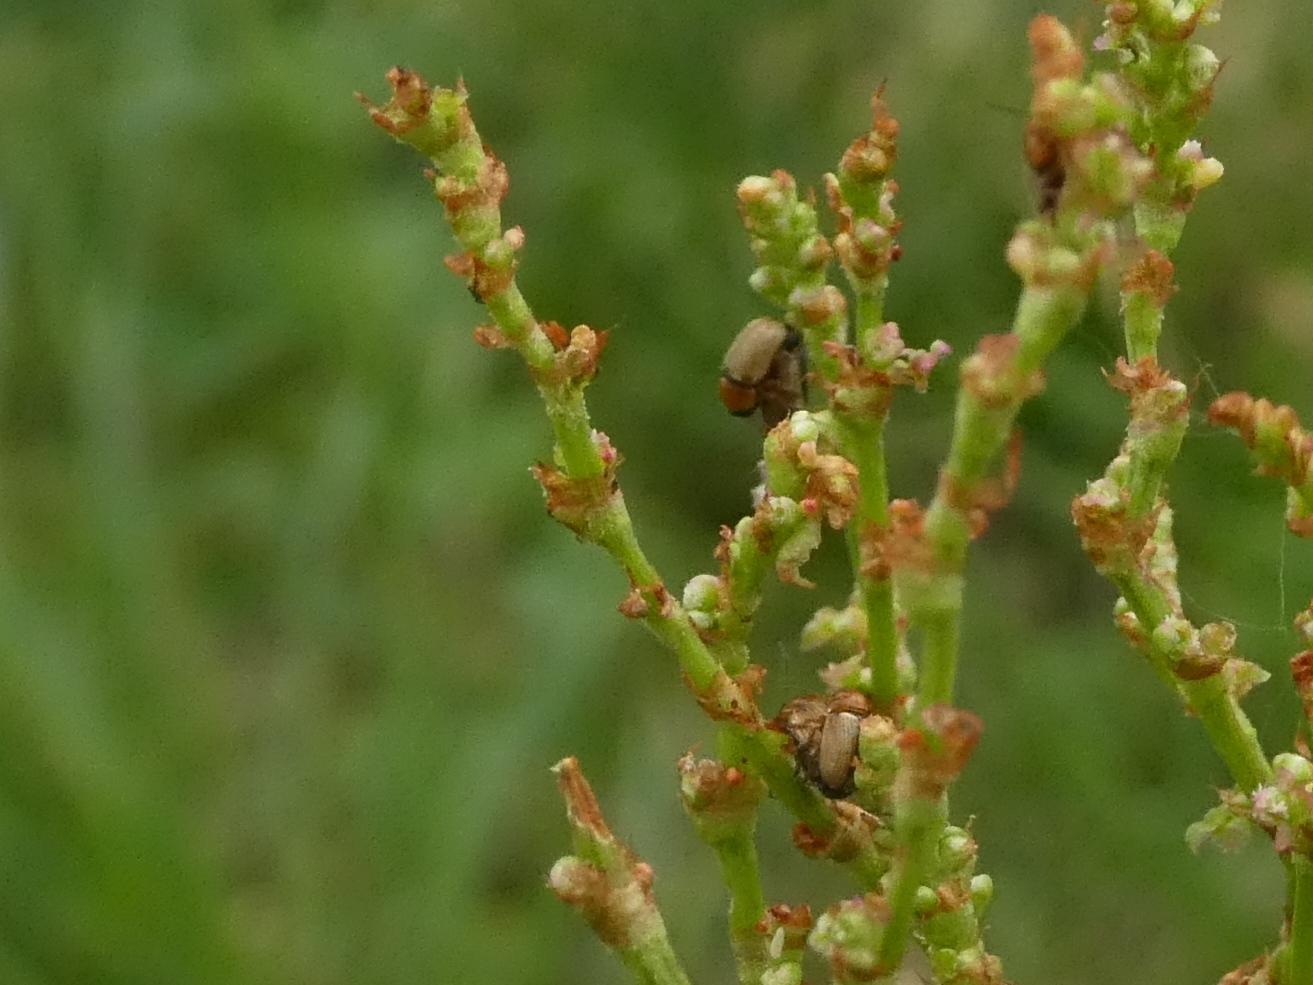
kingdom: Animalia
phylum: Arthropoda
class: Insecta
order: Coleoptera
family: Chrysomelidae
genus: Cryptocephalus
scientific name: Cryptocephalus fulvus
